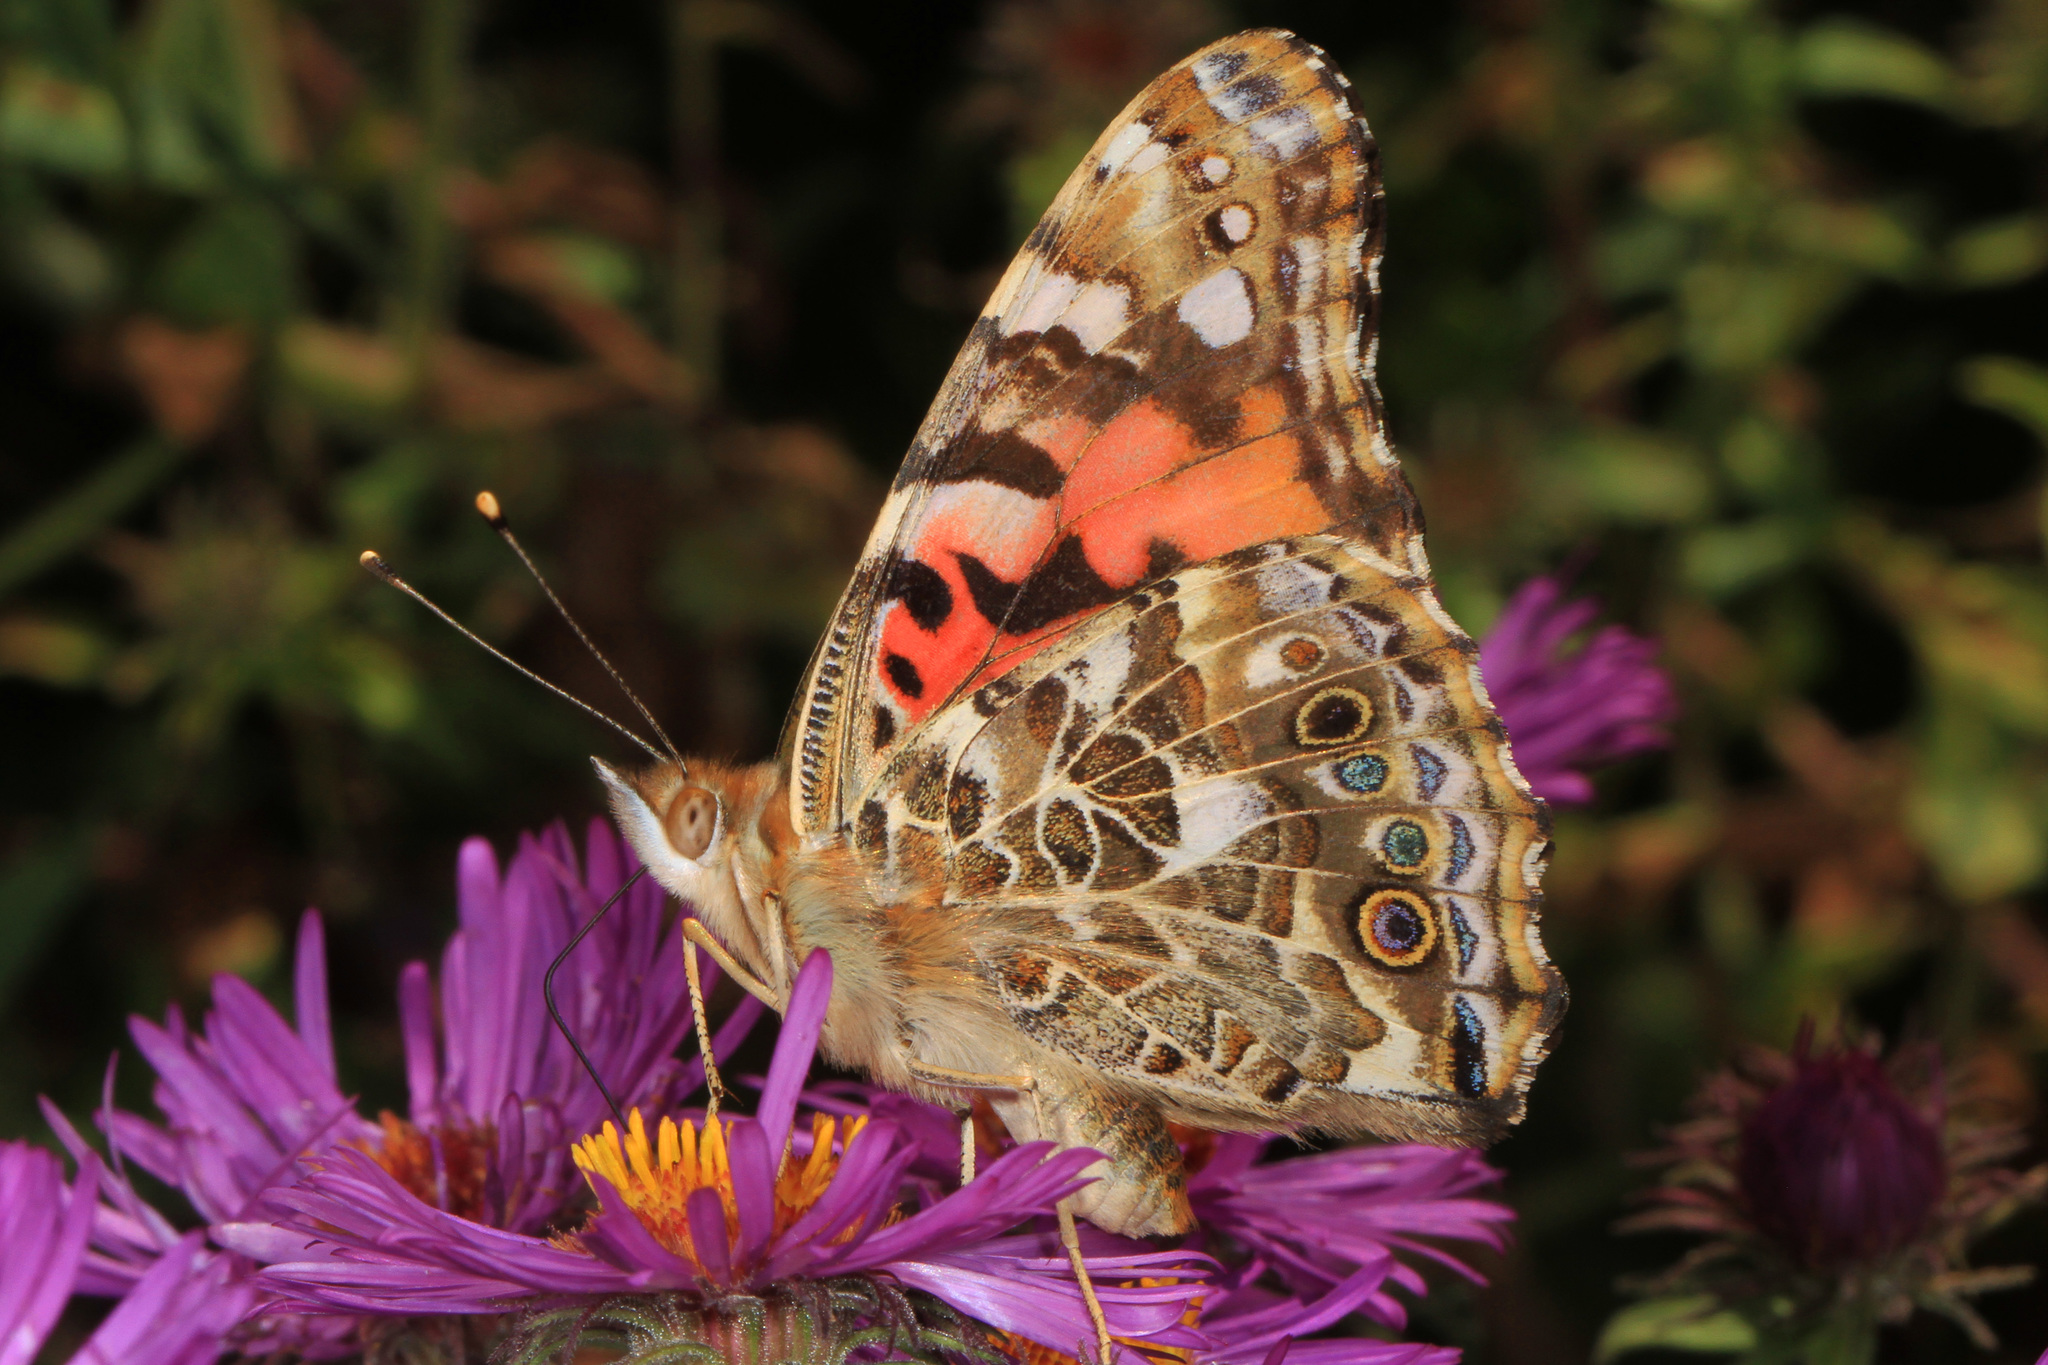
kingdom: Animalia
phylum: Arthropoda
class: Insecta
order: Lepidoptera
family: Nymphalidae
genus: Vanessa
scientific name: Vanessa cardui
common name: Painted lady
